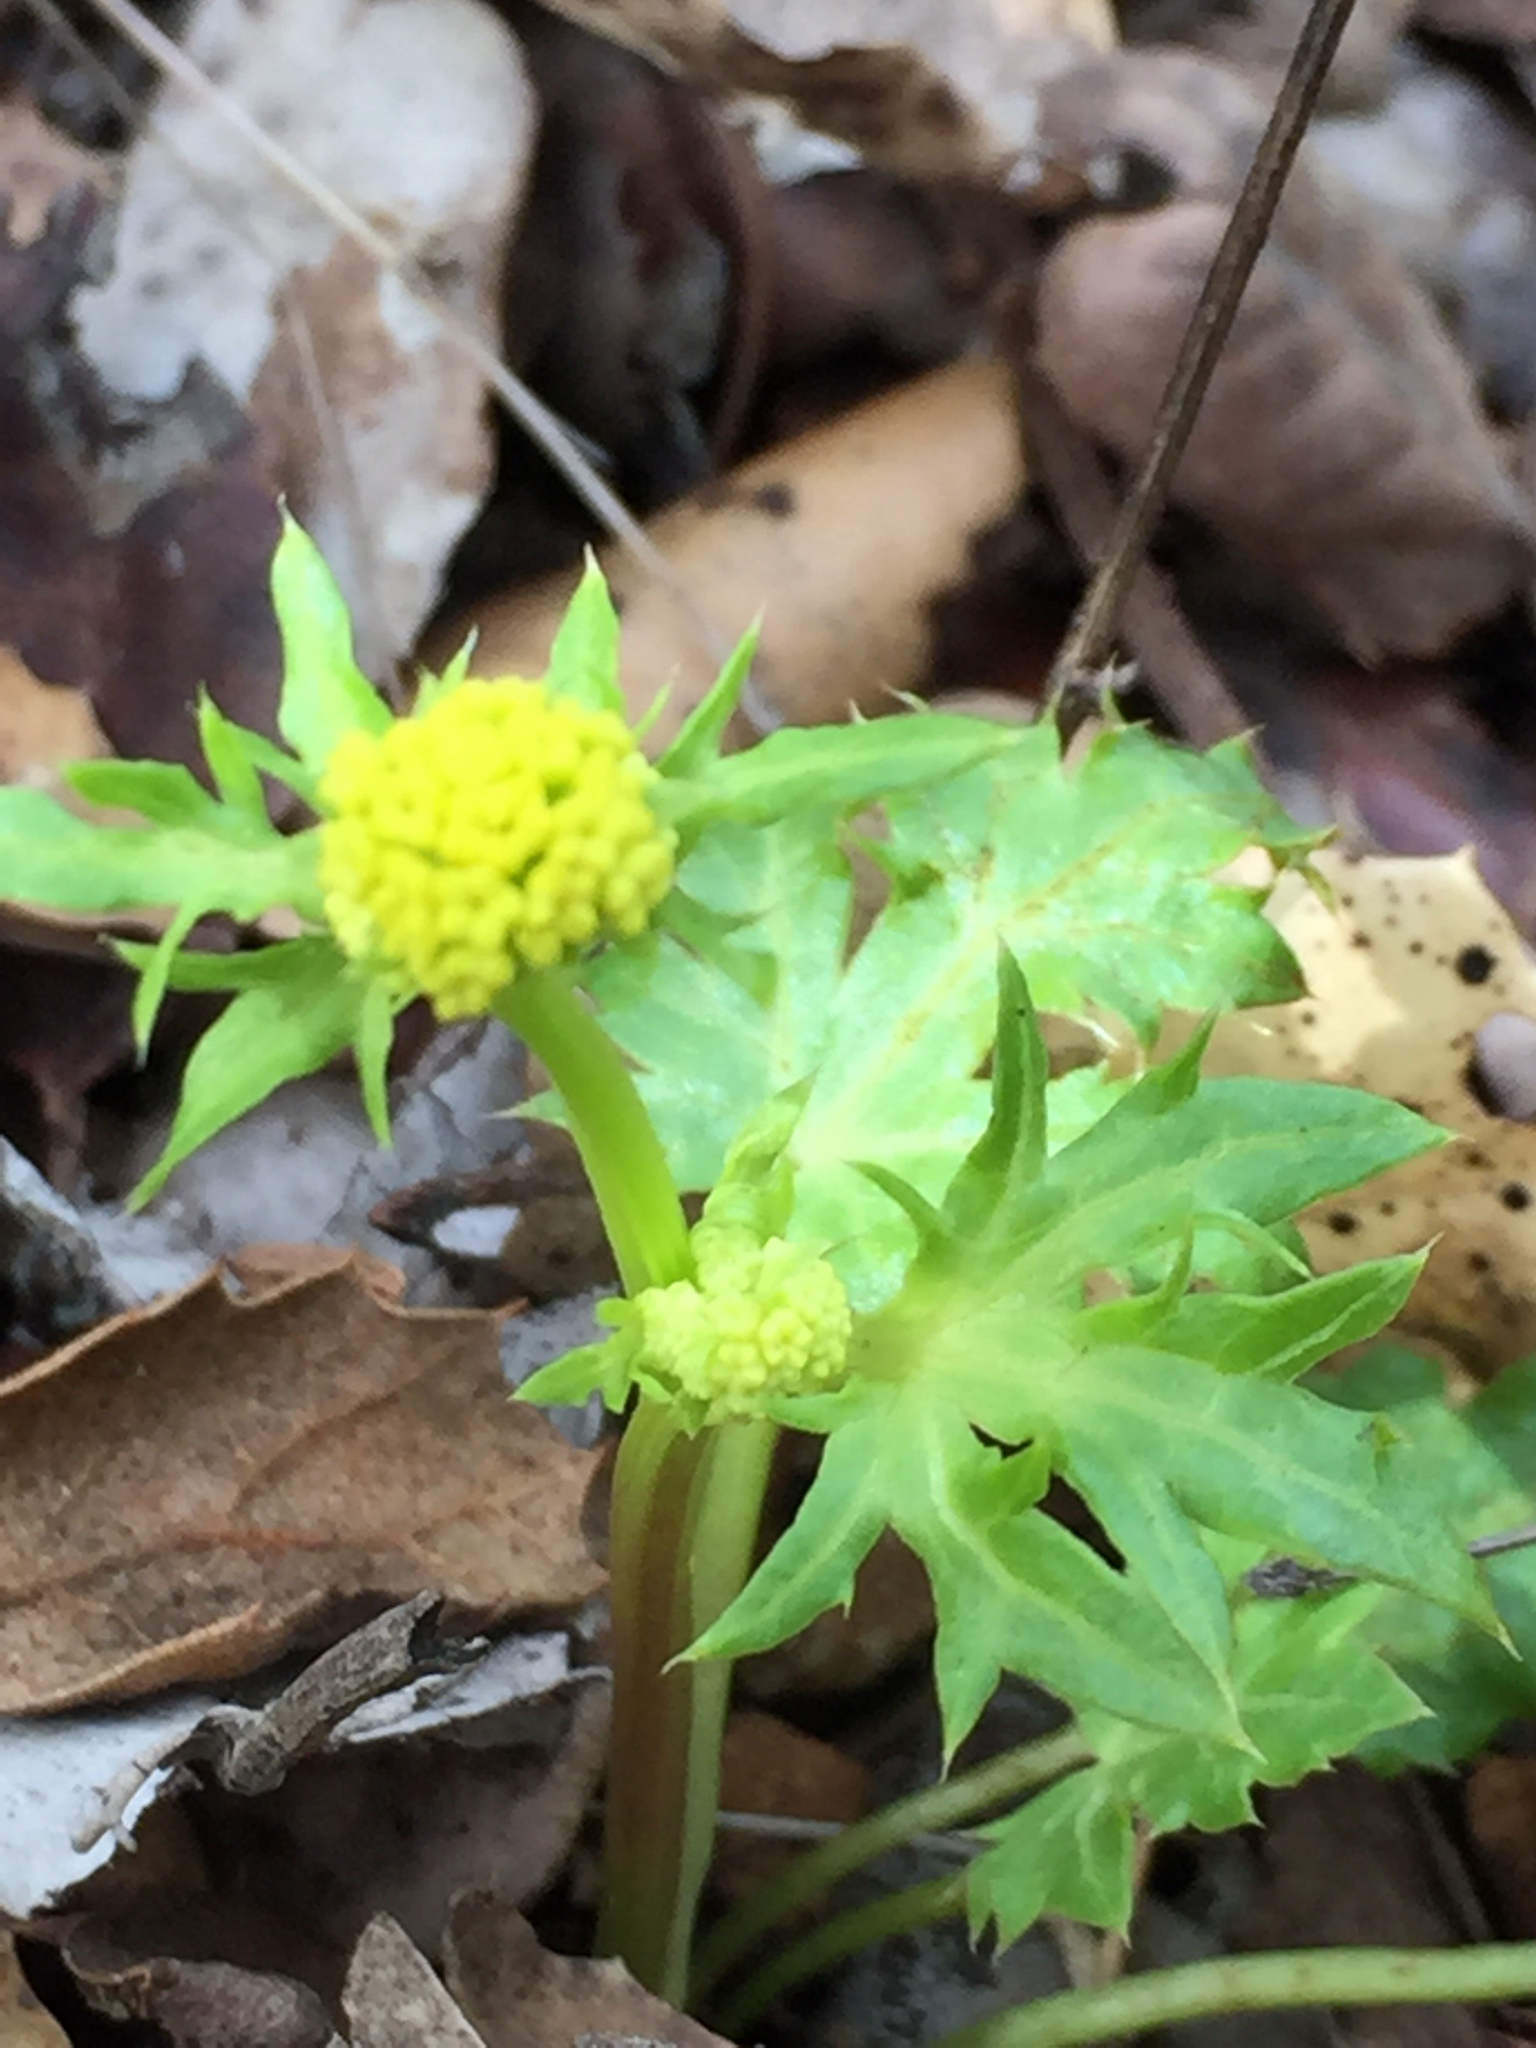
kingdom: Plantae
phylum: Tracheophyta
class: Magnoliopsida
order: Apiales
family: Apiaceae
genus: Sanicula
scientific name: Sanicula laciniata
